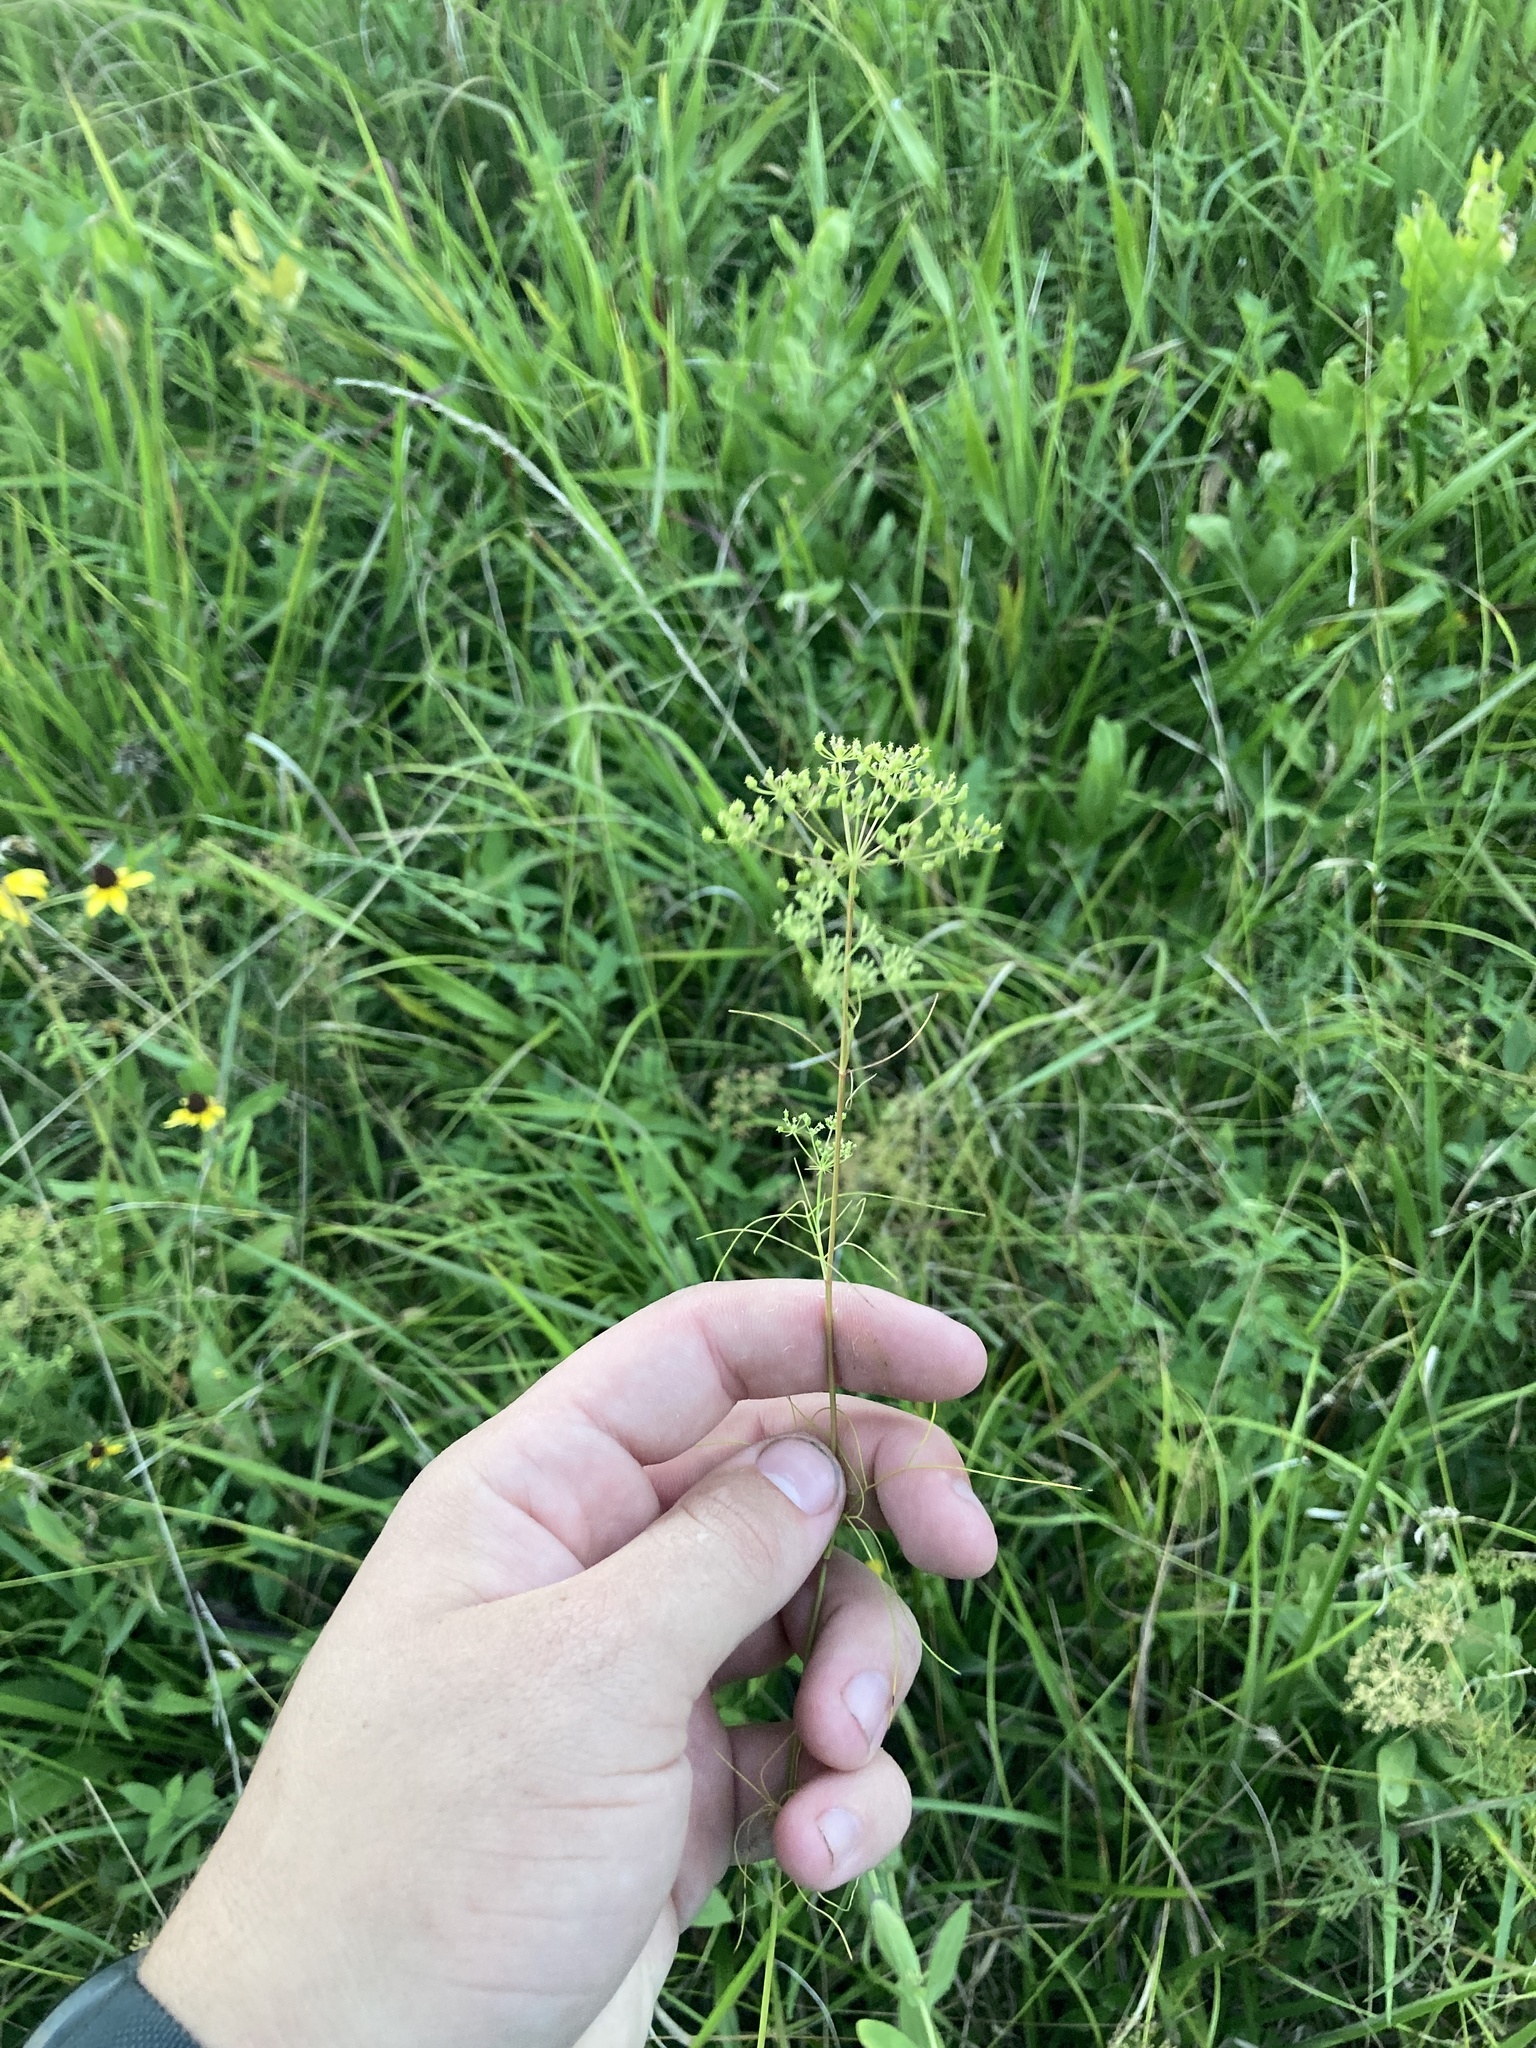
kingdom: Plantae
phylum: Tracheophyta
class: Magnoliopsida
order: Apiales
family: Apiaceae
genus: Ptilimnium
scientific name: Ptilimnium nuttallii
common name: Ozark bishop's-weed
